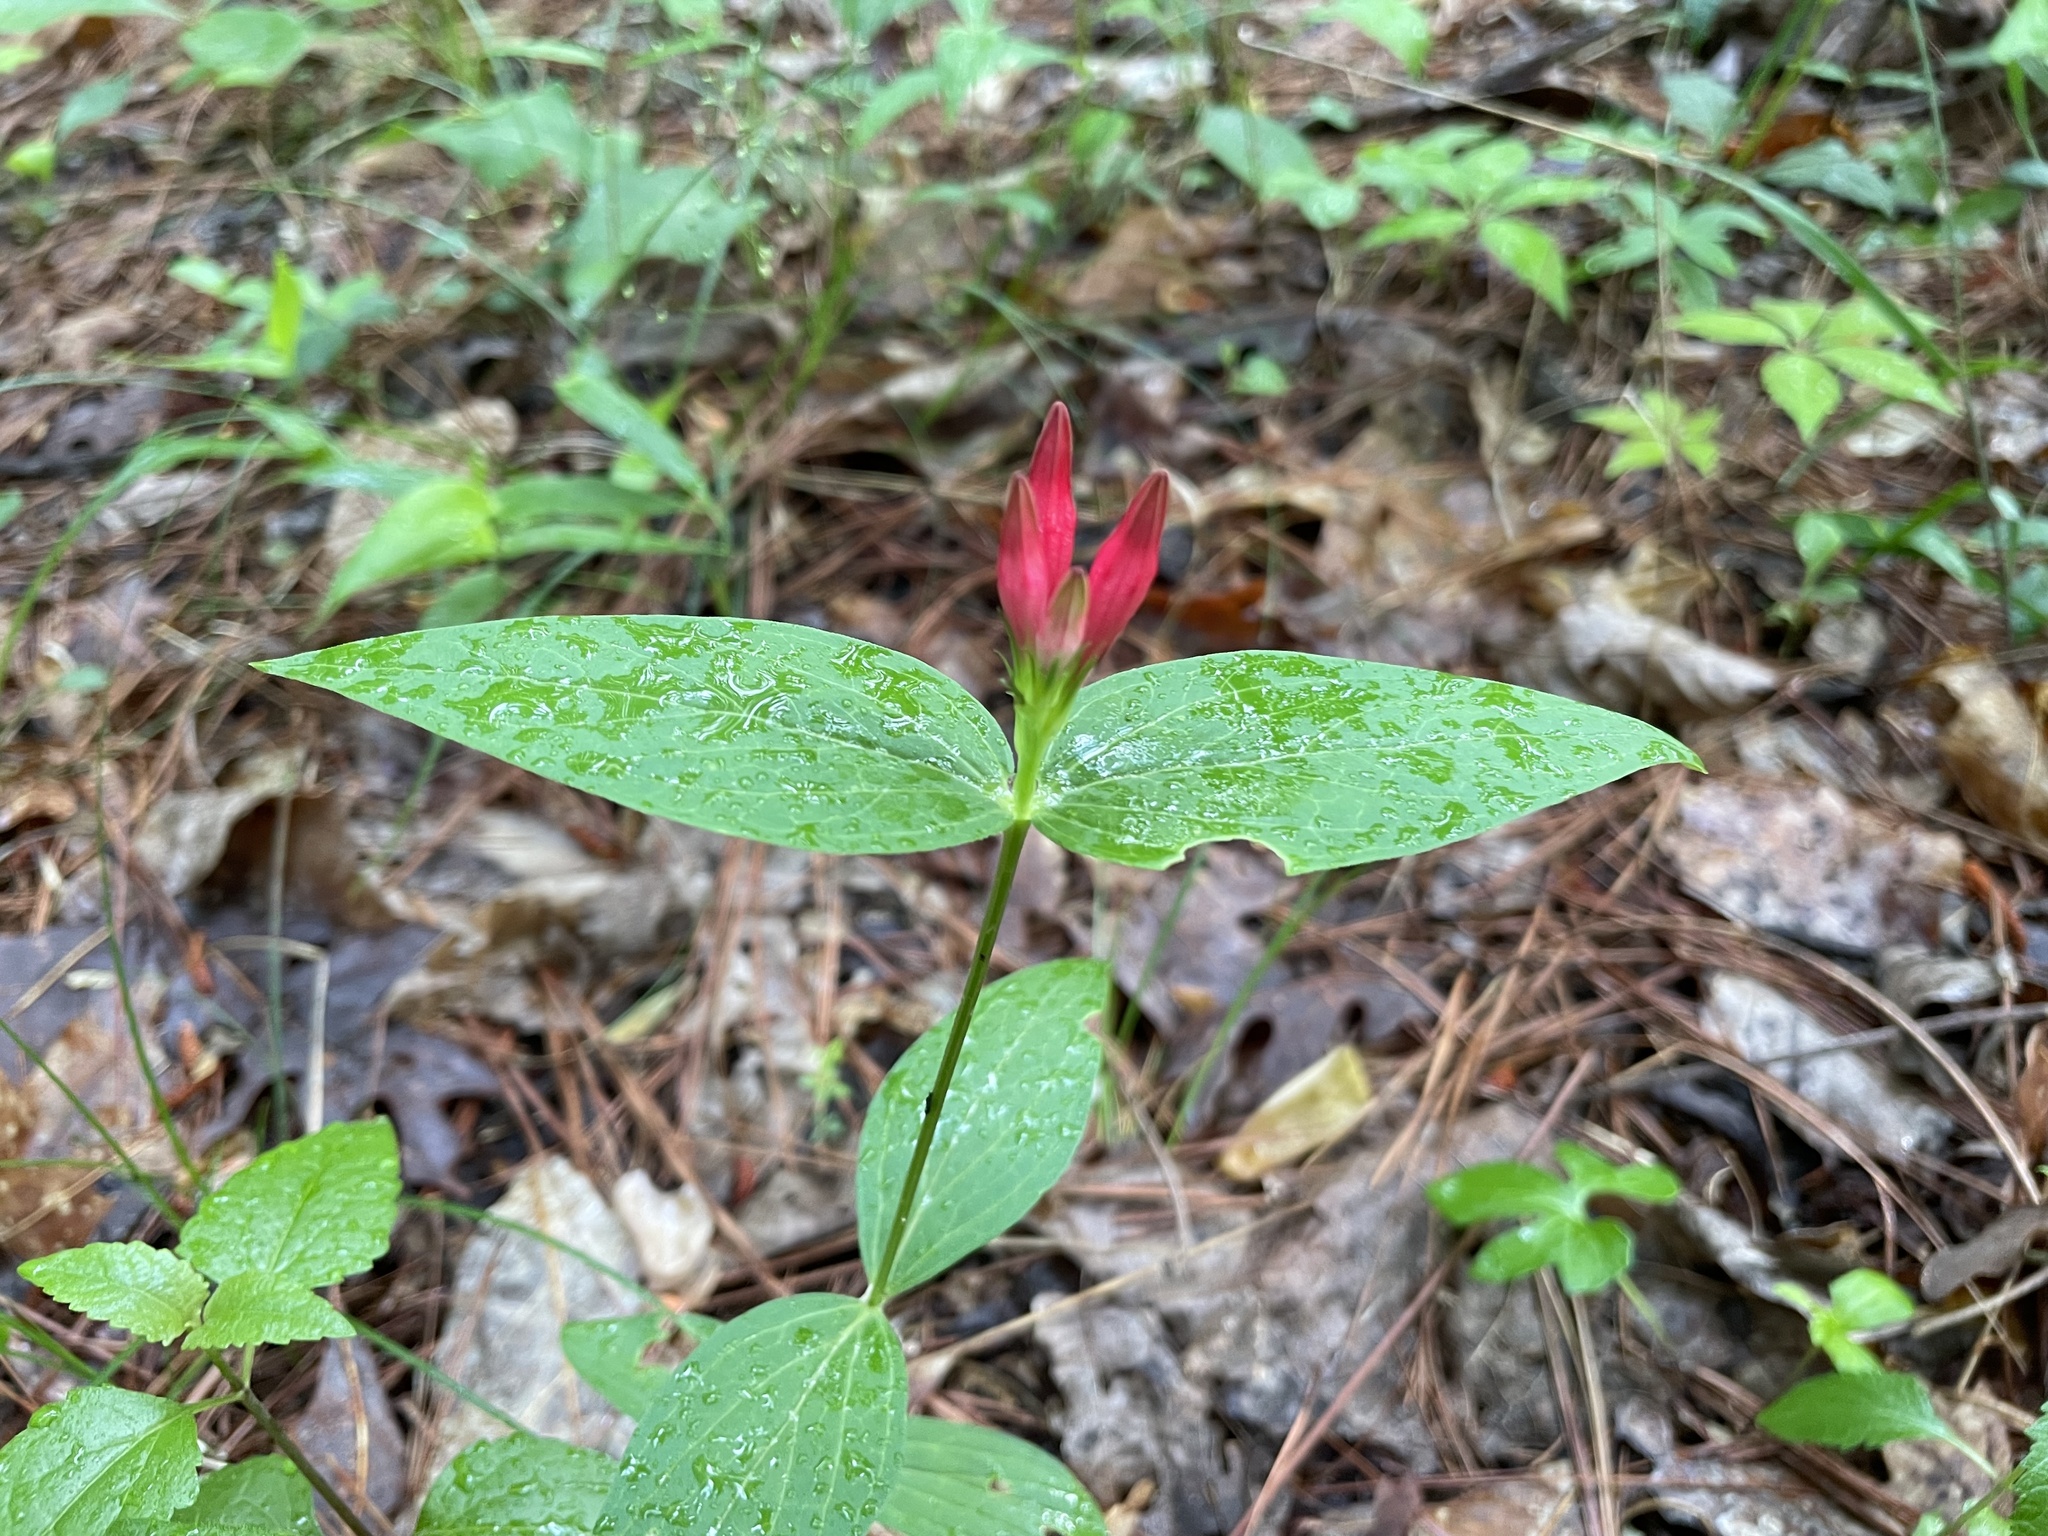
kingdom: Plantae
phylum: Tracheophyta
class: Magnoliopsida
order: Gentianales
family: Loganiaceae
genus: Spigelia
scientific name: Spigelia marilandica
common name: Indian-pink
